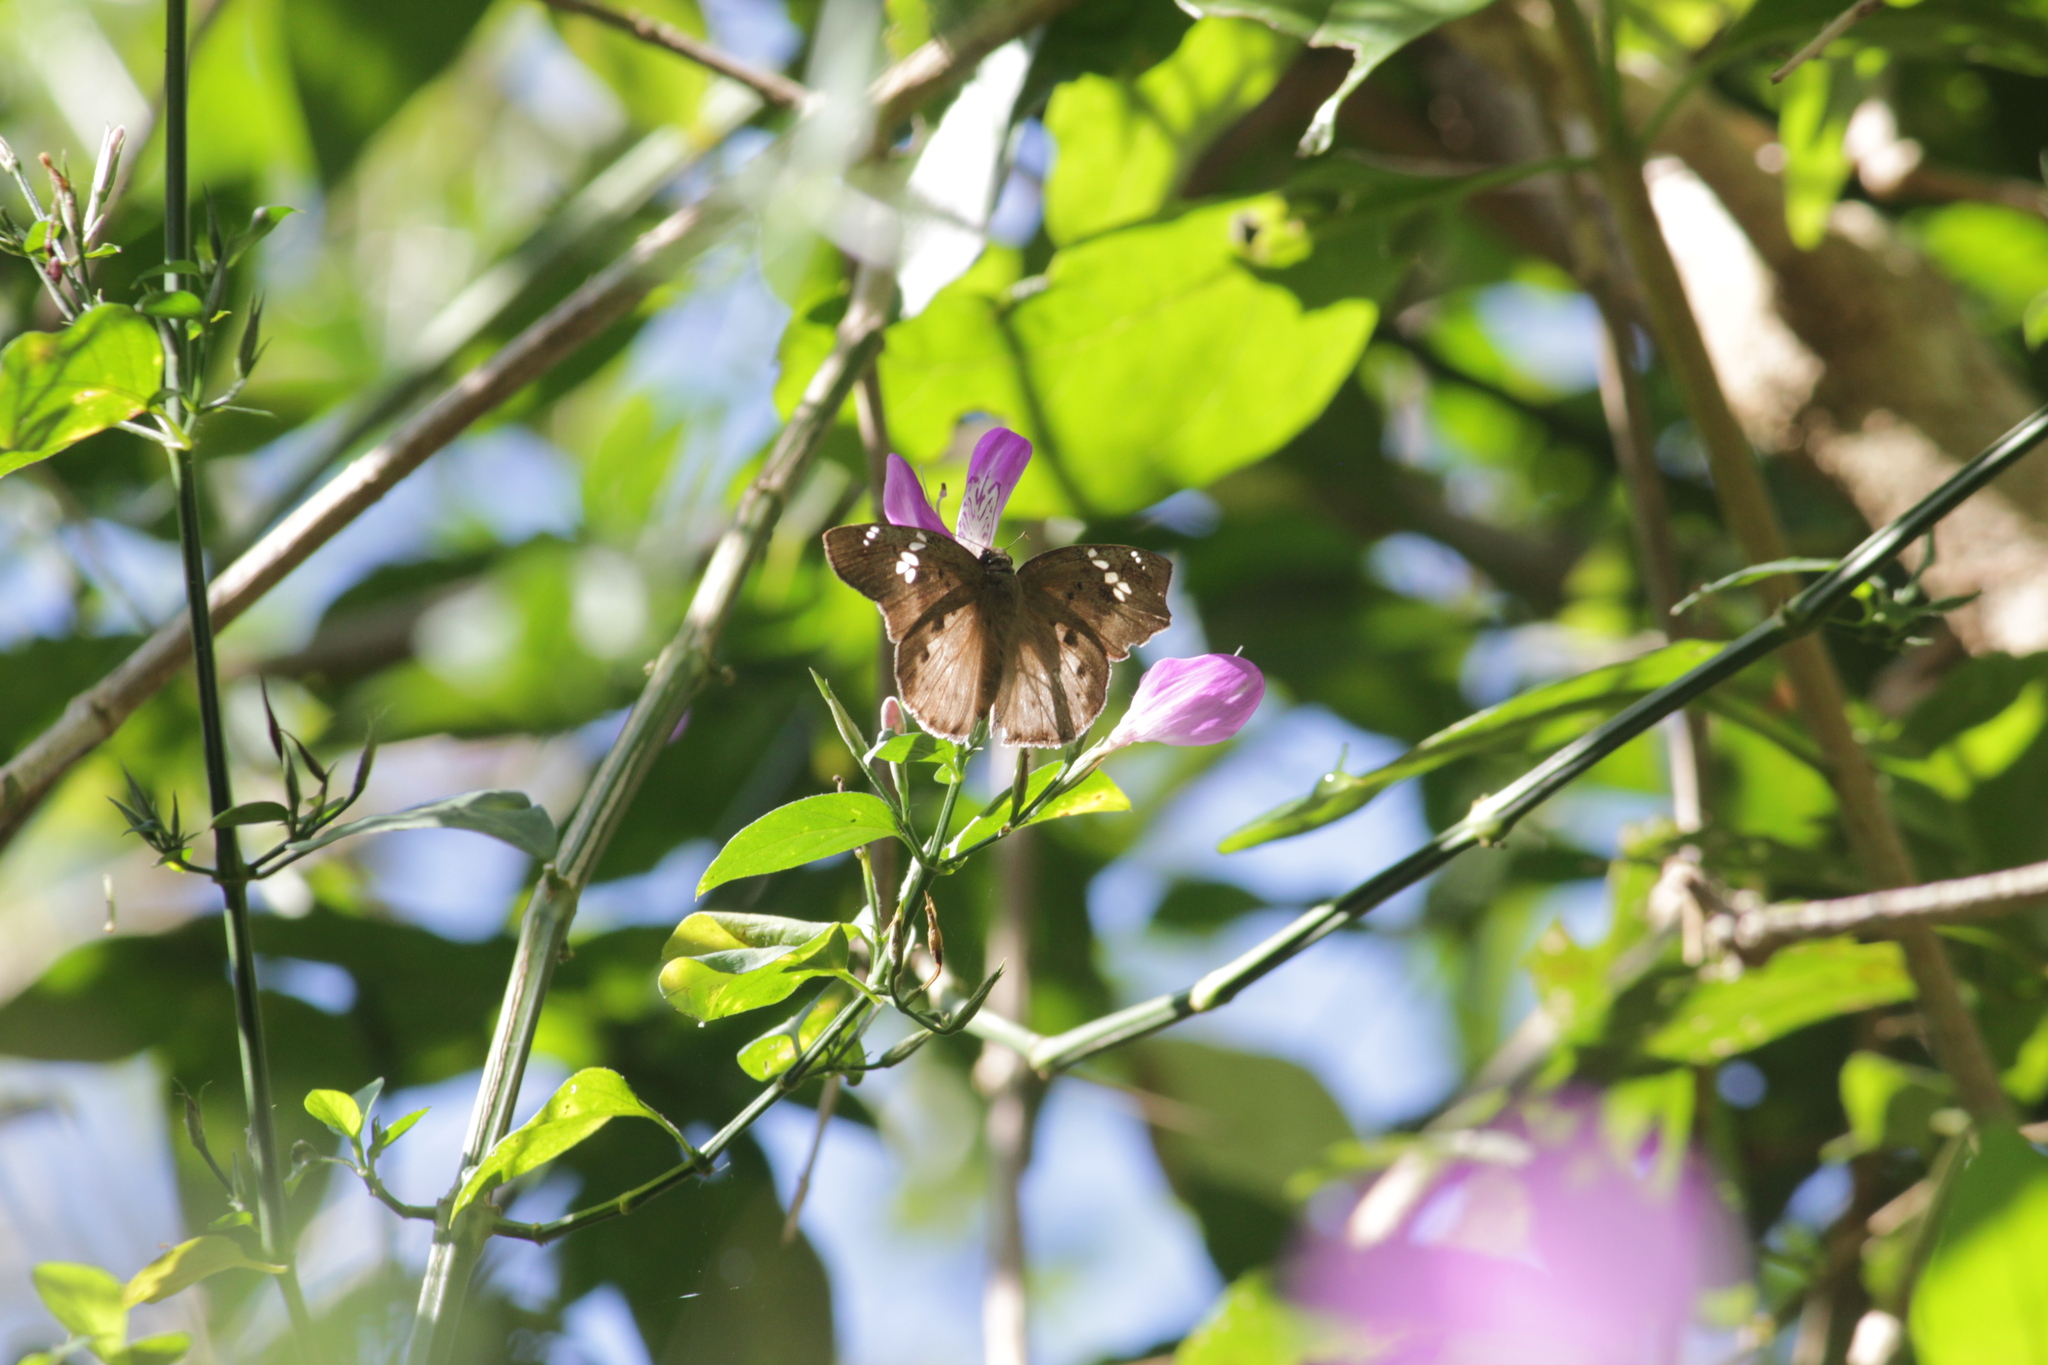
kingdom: Animalia
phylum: Arthropoda
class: Insecta
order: Lepidoptera
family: Hesperiidae
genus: Tagiades
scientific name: Tagiades flesus
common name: Clouded flat
